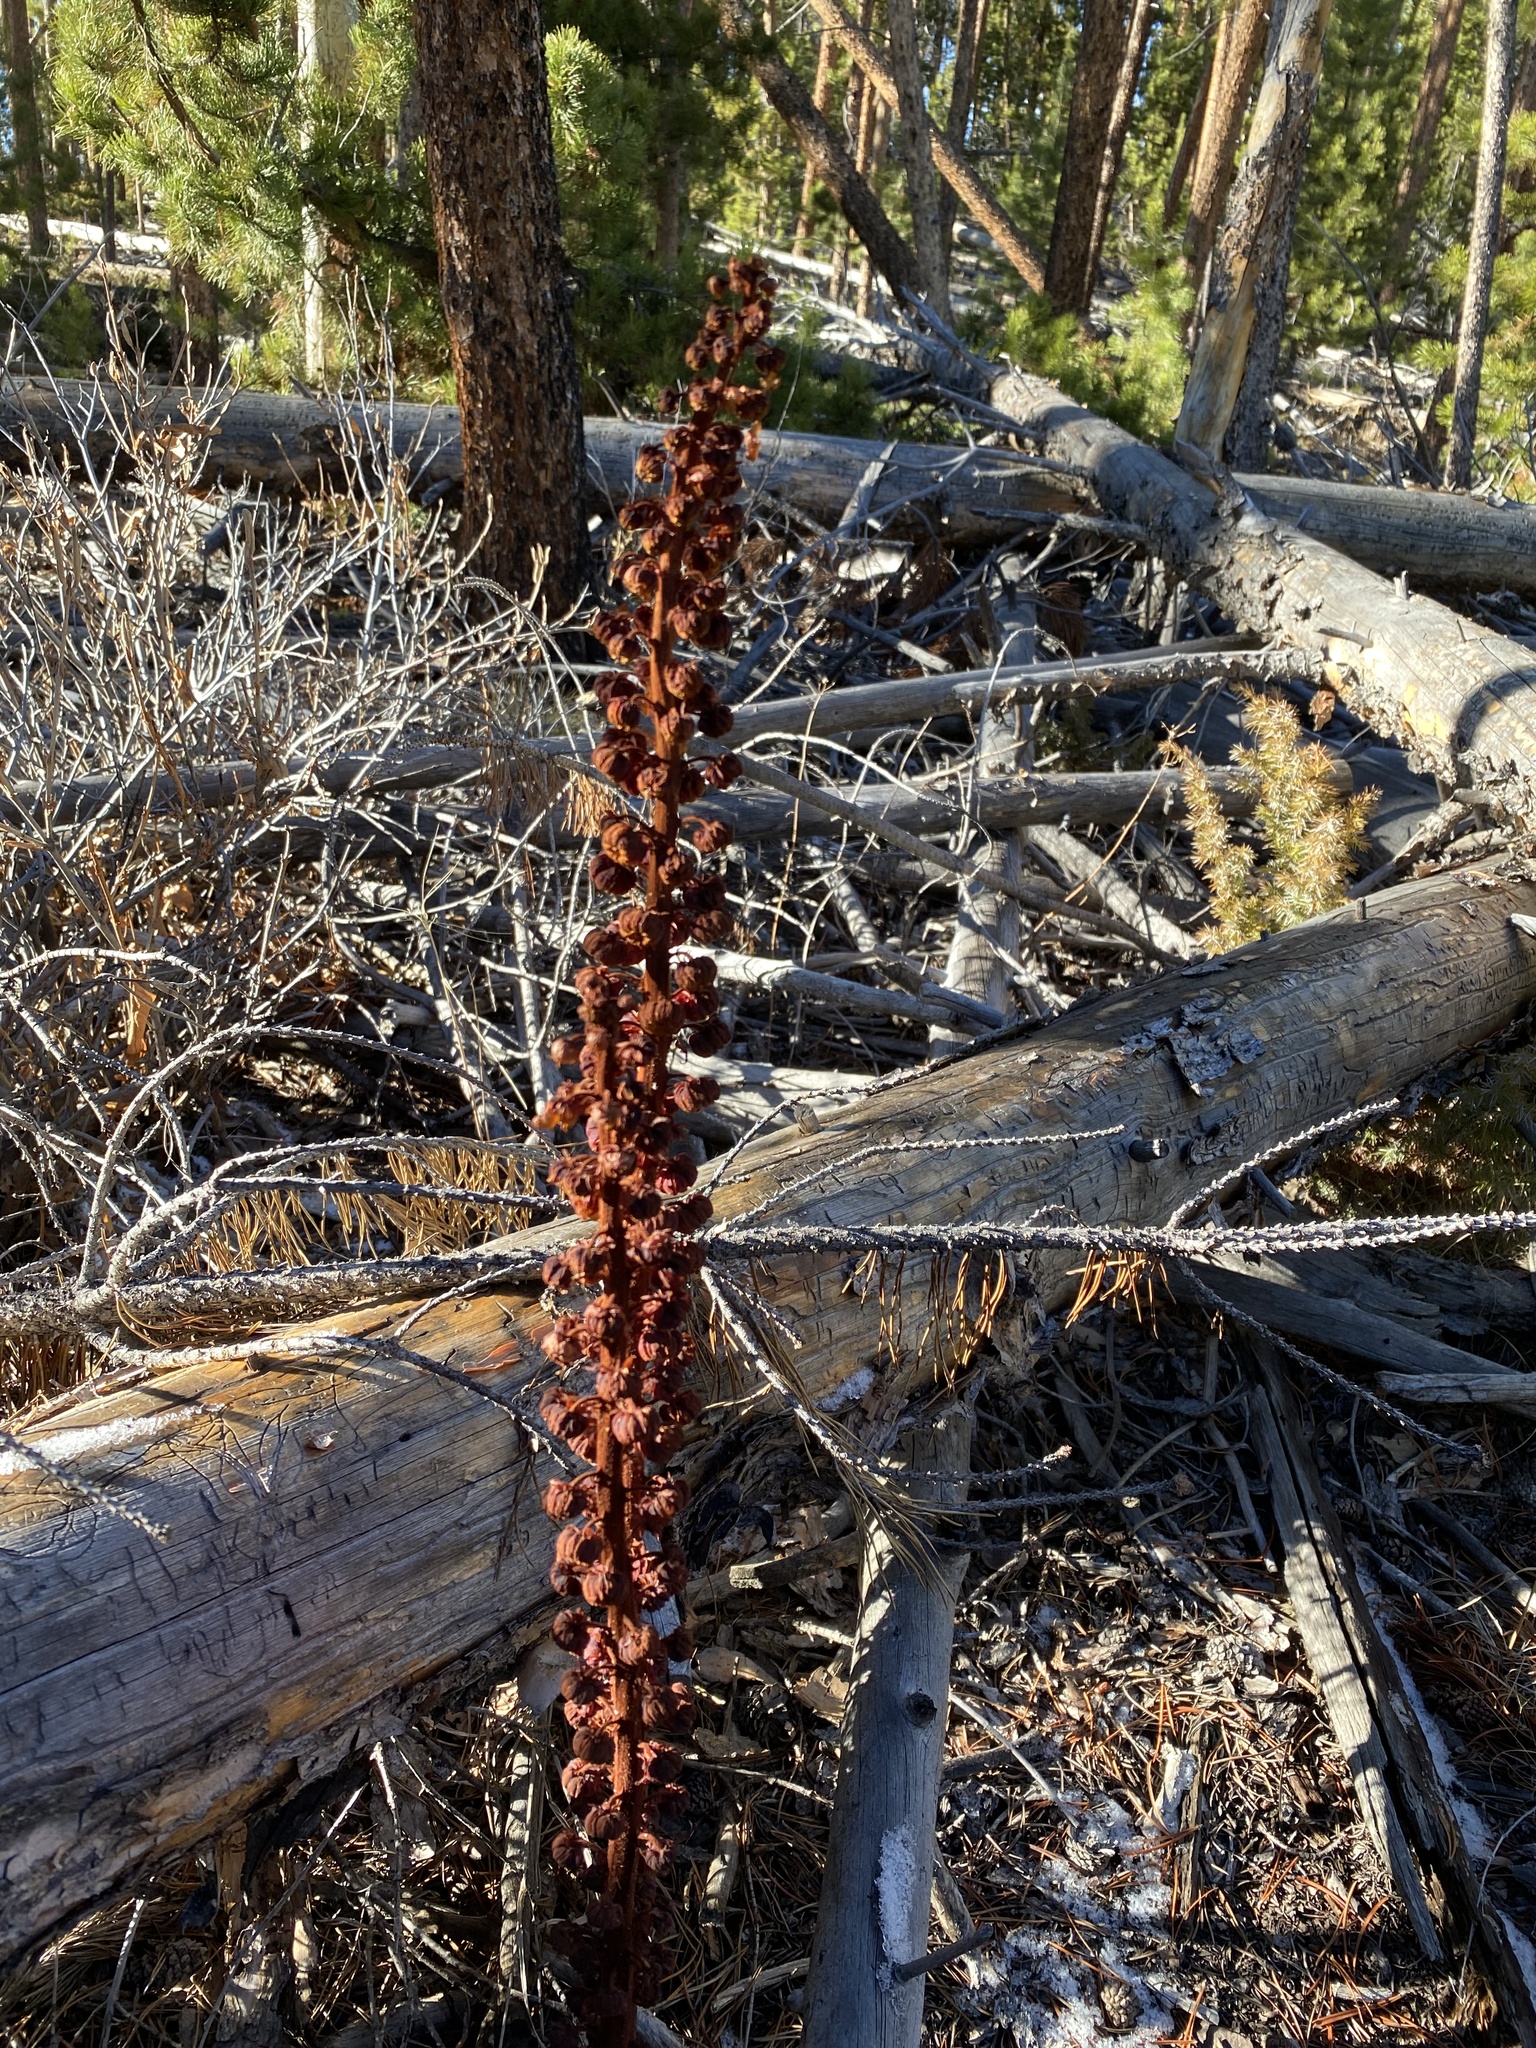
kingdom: Plantae
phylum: Tracheophyta
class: Magnoliopsida
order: Ericales
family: Ericaceae
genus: Pterospora
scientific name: Pterospora andromedea
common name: Giant bird's-nest
